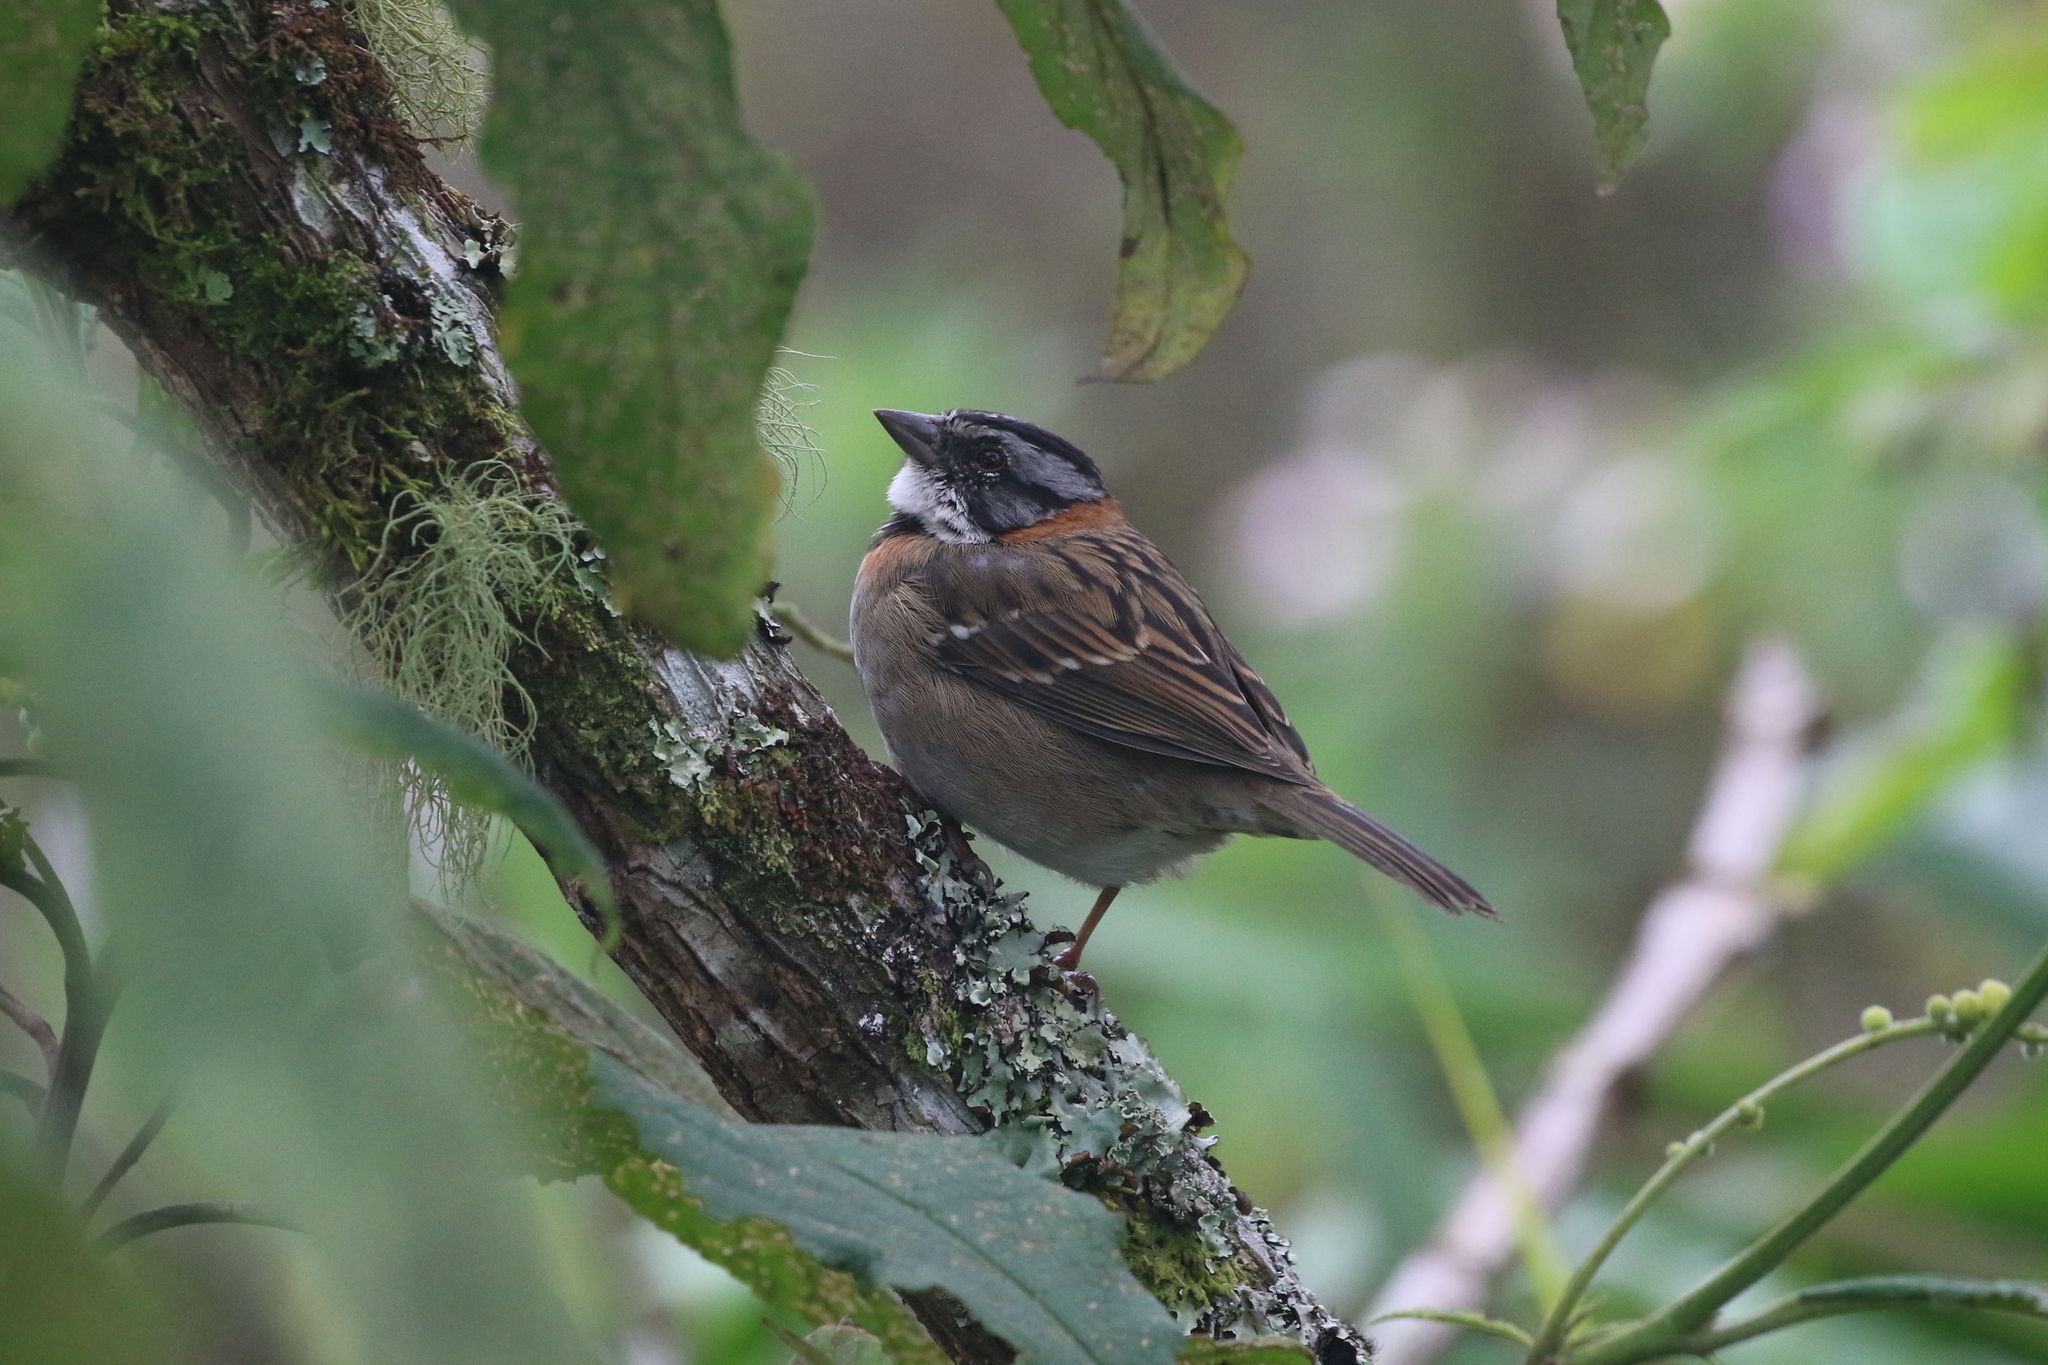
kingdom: Animalia
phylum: Chordata
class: Aves
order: Passeriformes
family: Passerellidae
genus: Zonotrichia
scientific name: Zonotrichia capensis
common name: Rufous-collared sparrow
